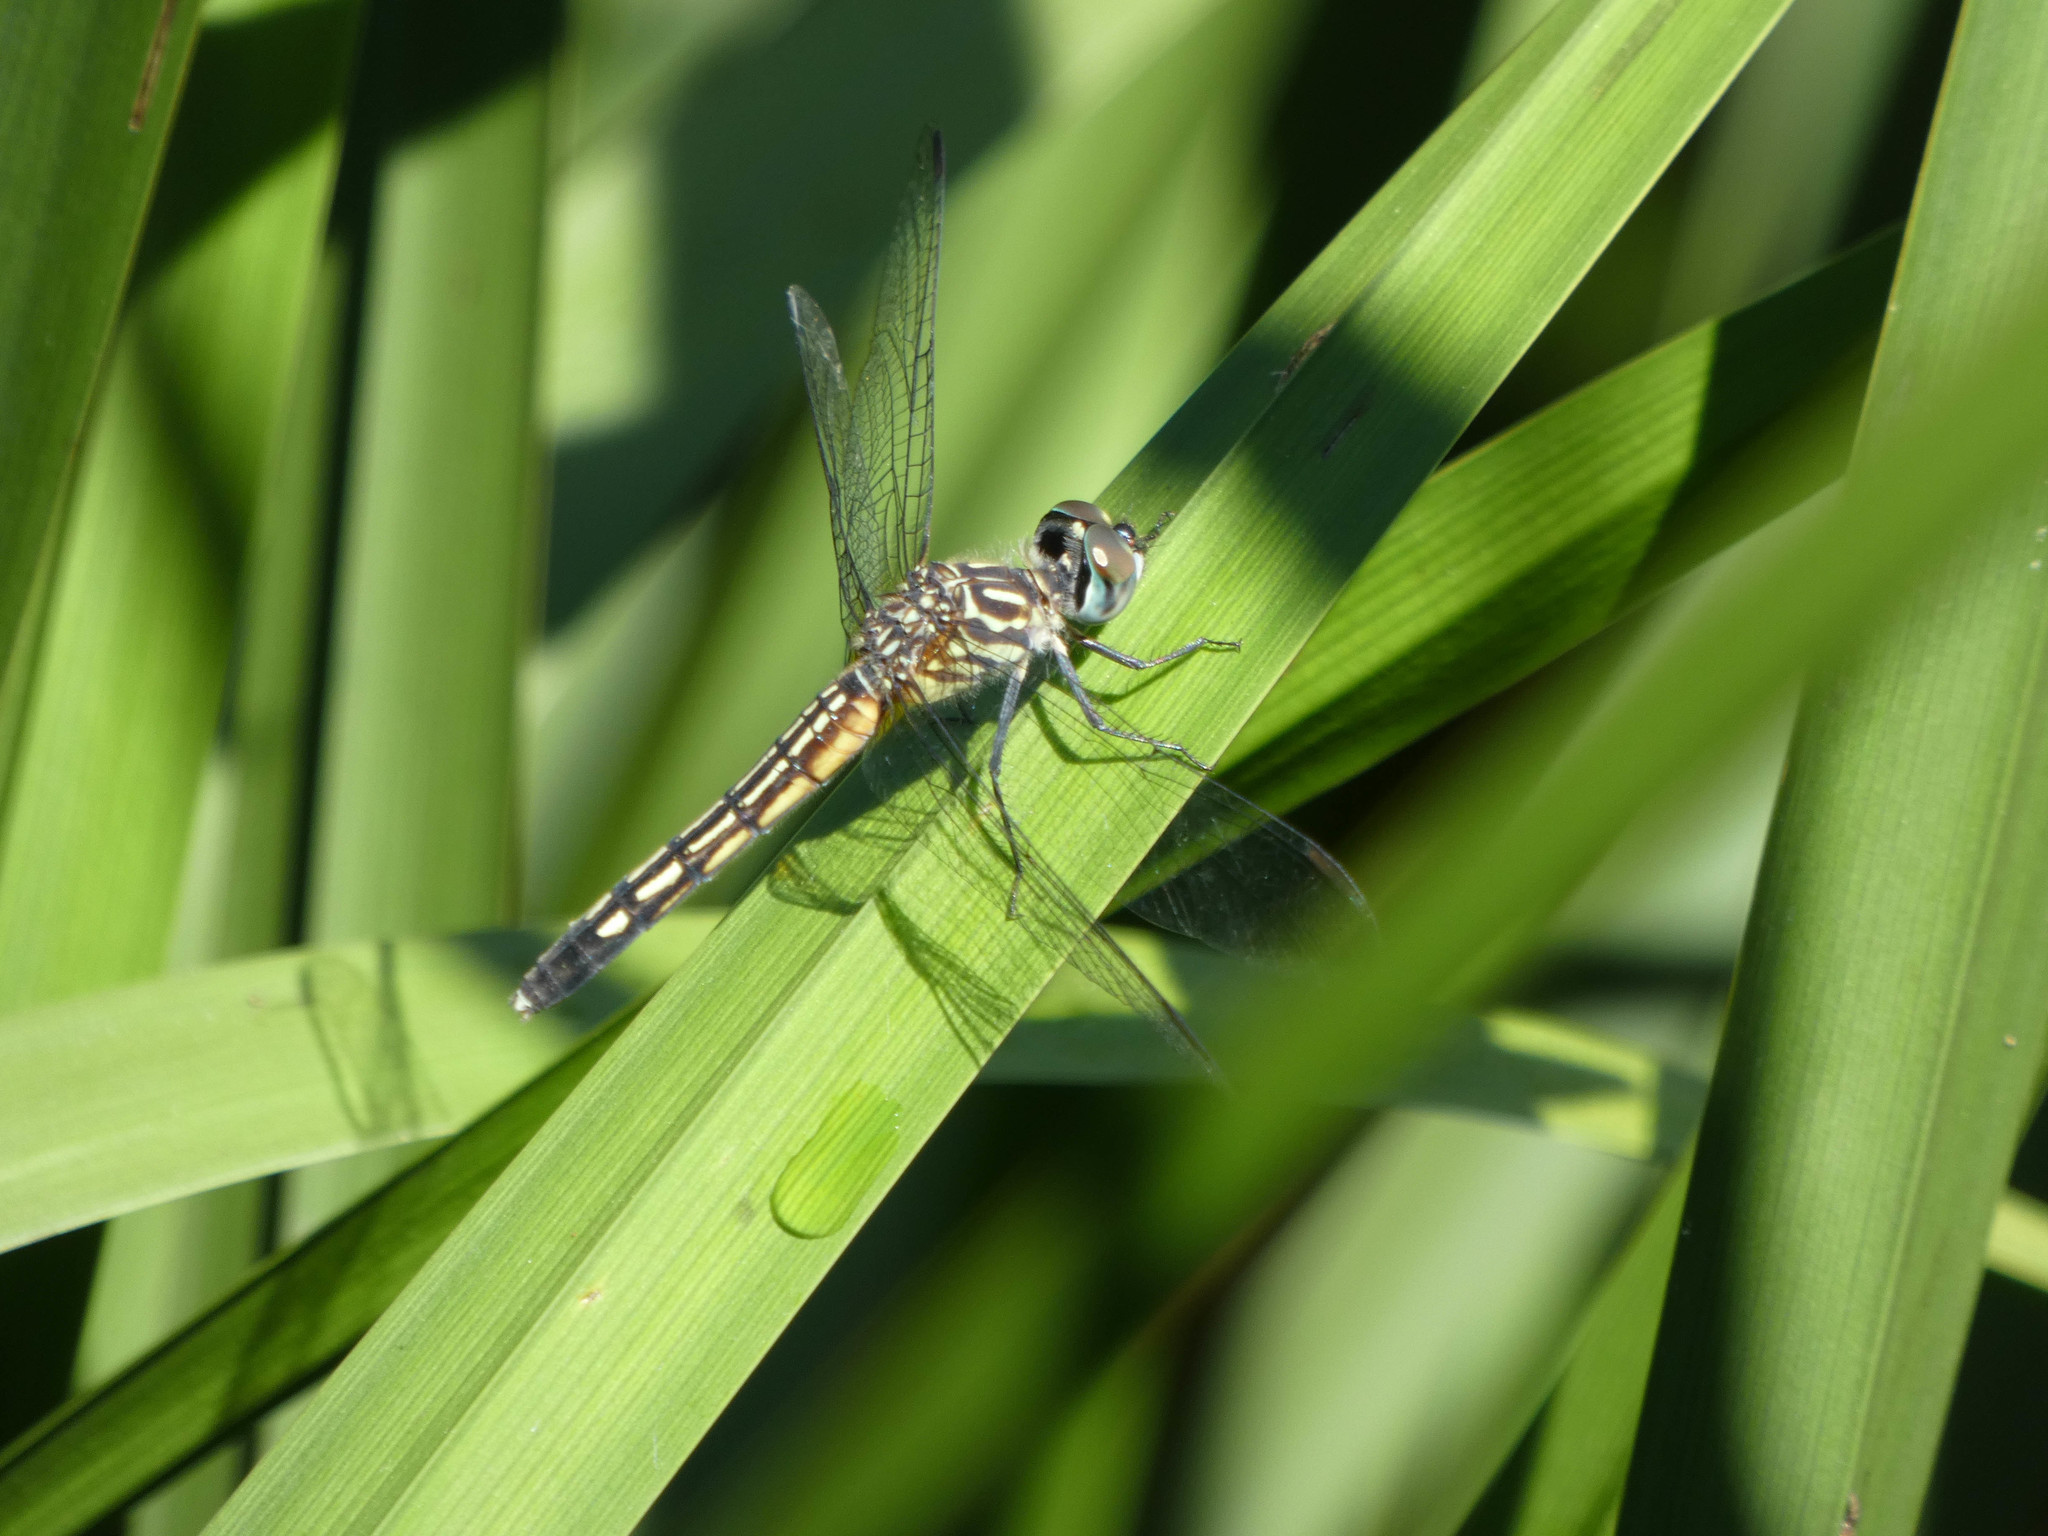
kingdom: Animalia
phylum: Arthropoda
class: Insecta
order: Odonata
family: Libellulidae
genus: Pachydiplax
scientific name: Pachydiplax longipennis
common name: Blue dasher
